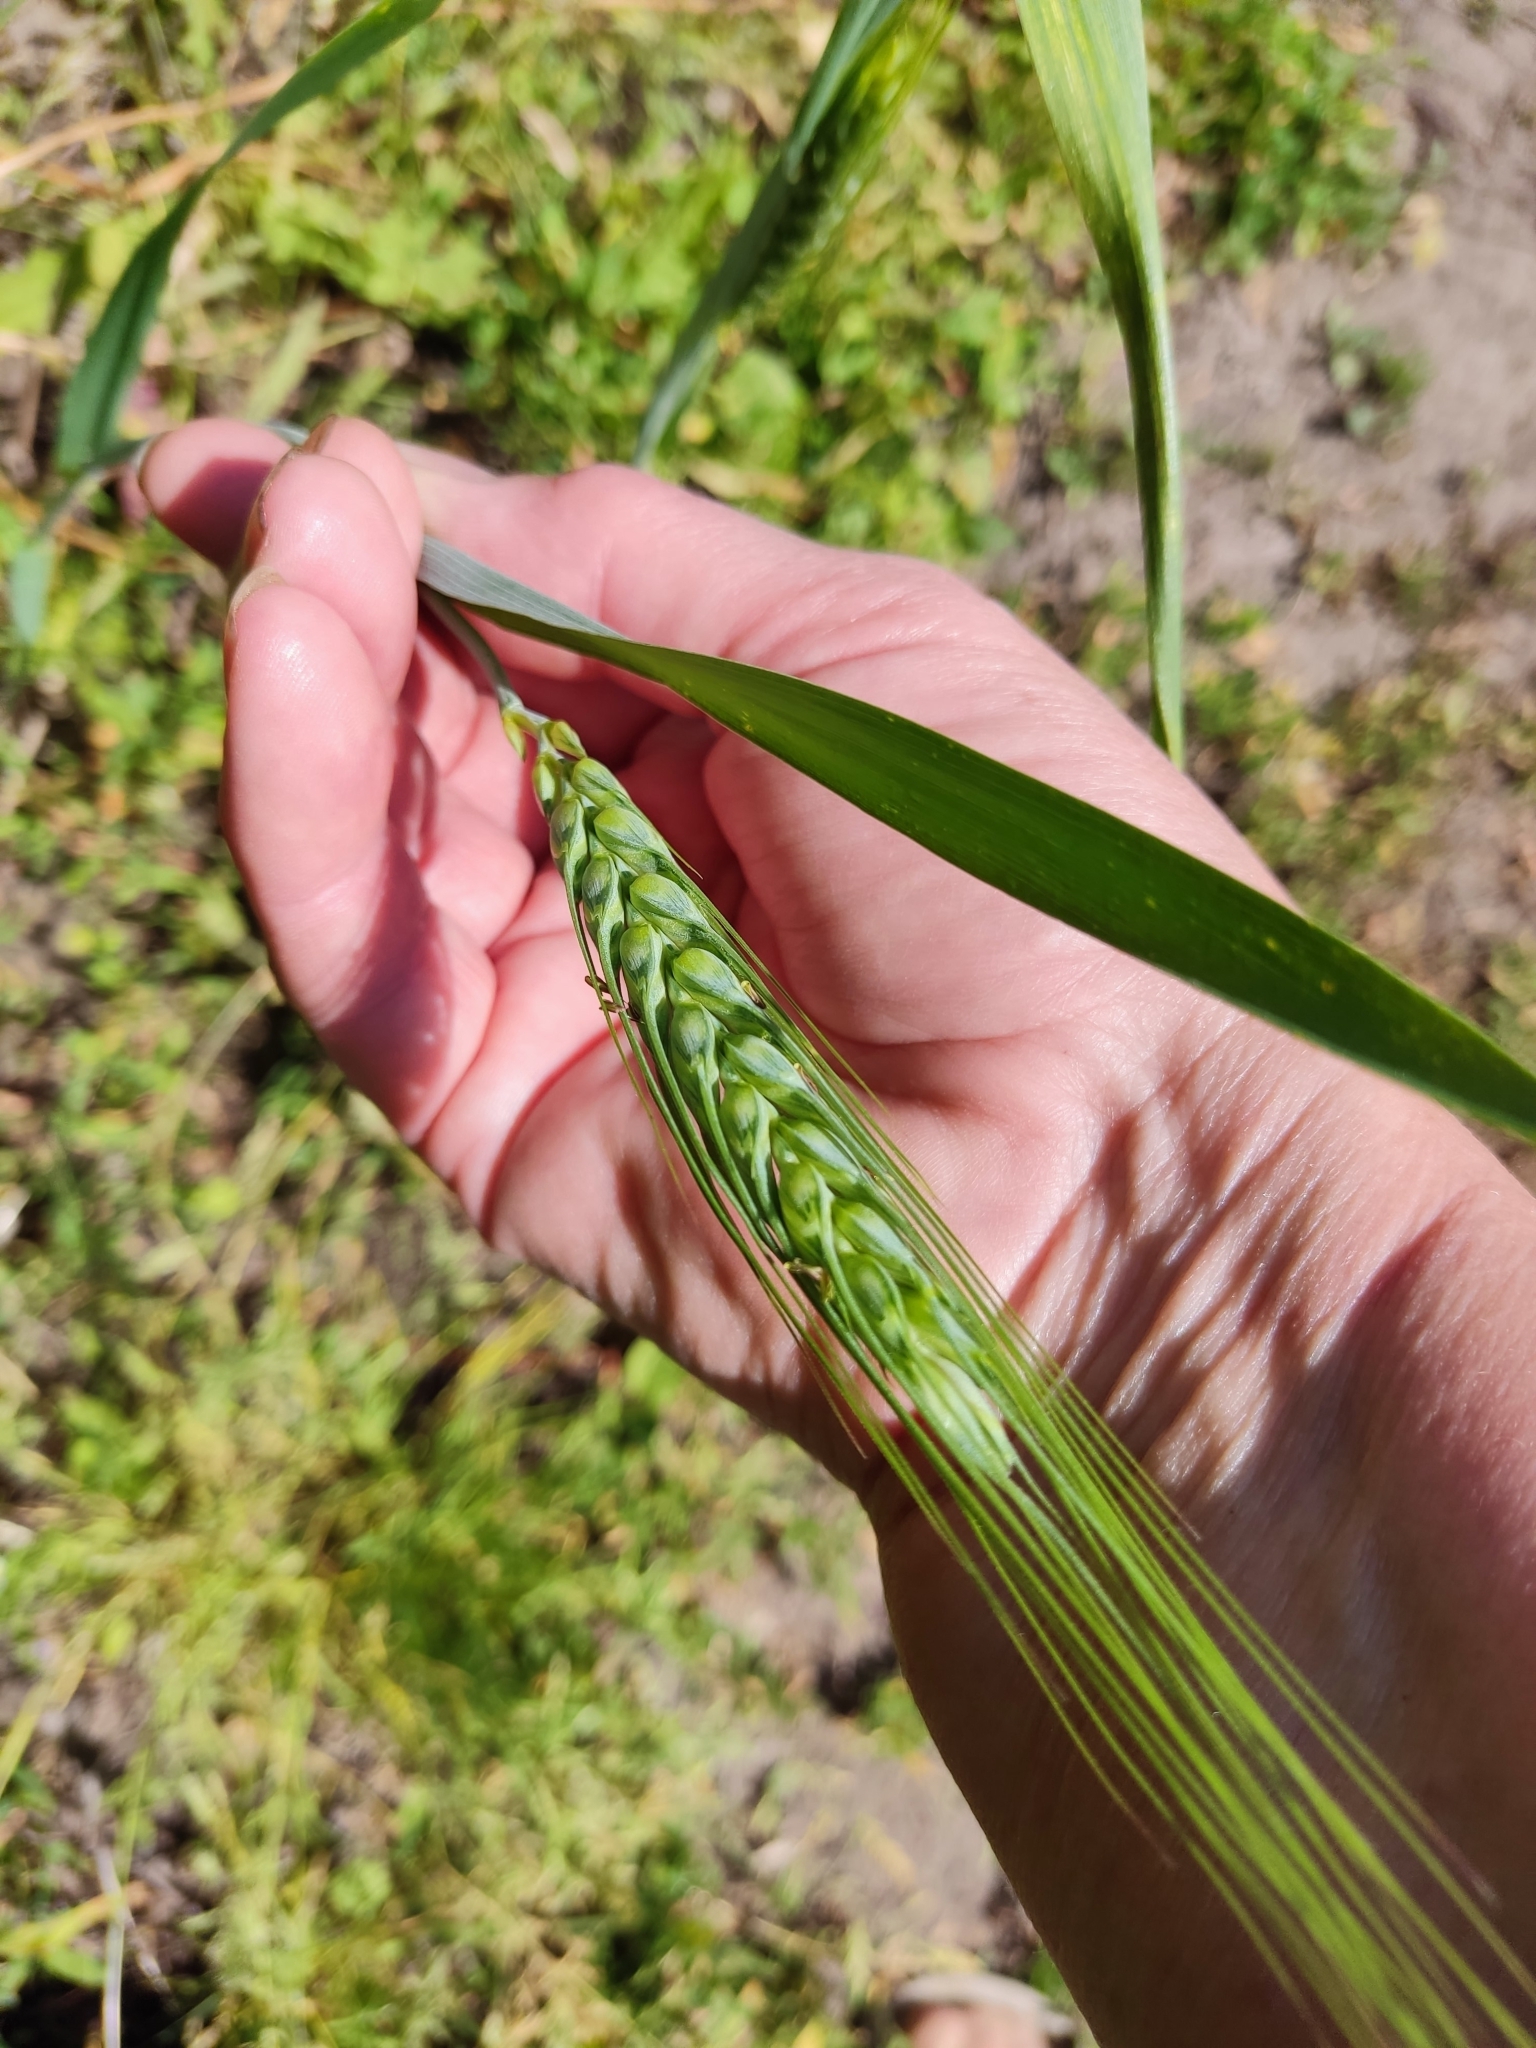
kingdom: Plantae
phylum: Tracheophyta
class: Liliopsida
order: Poales
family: Poaceae
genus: Triticum
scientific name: Triticum aestivum
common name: Common wheat
